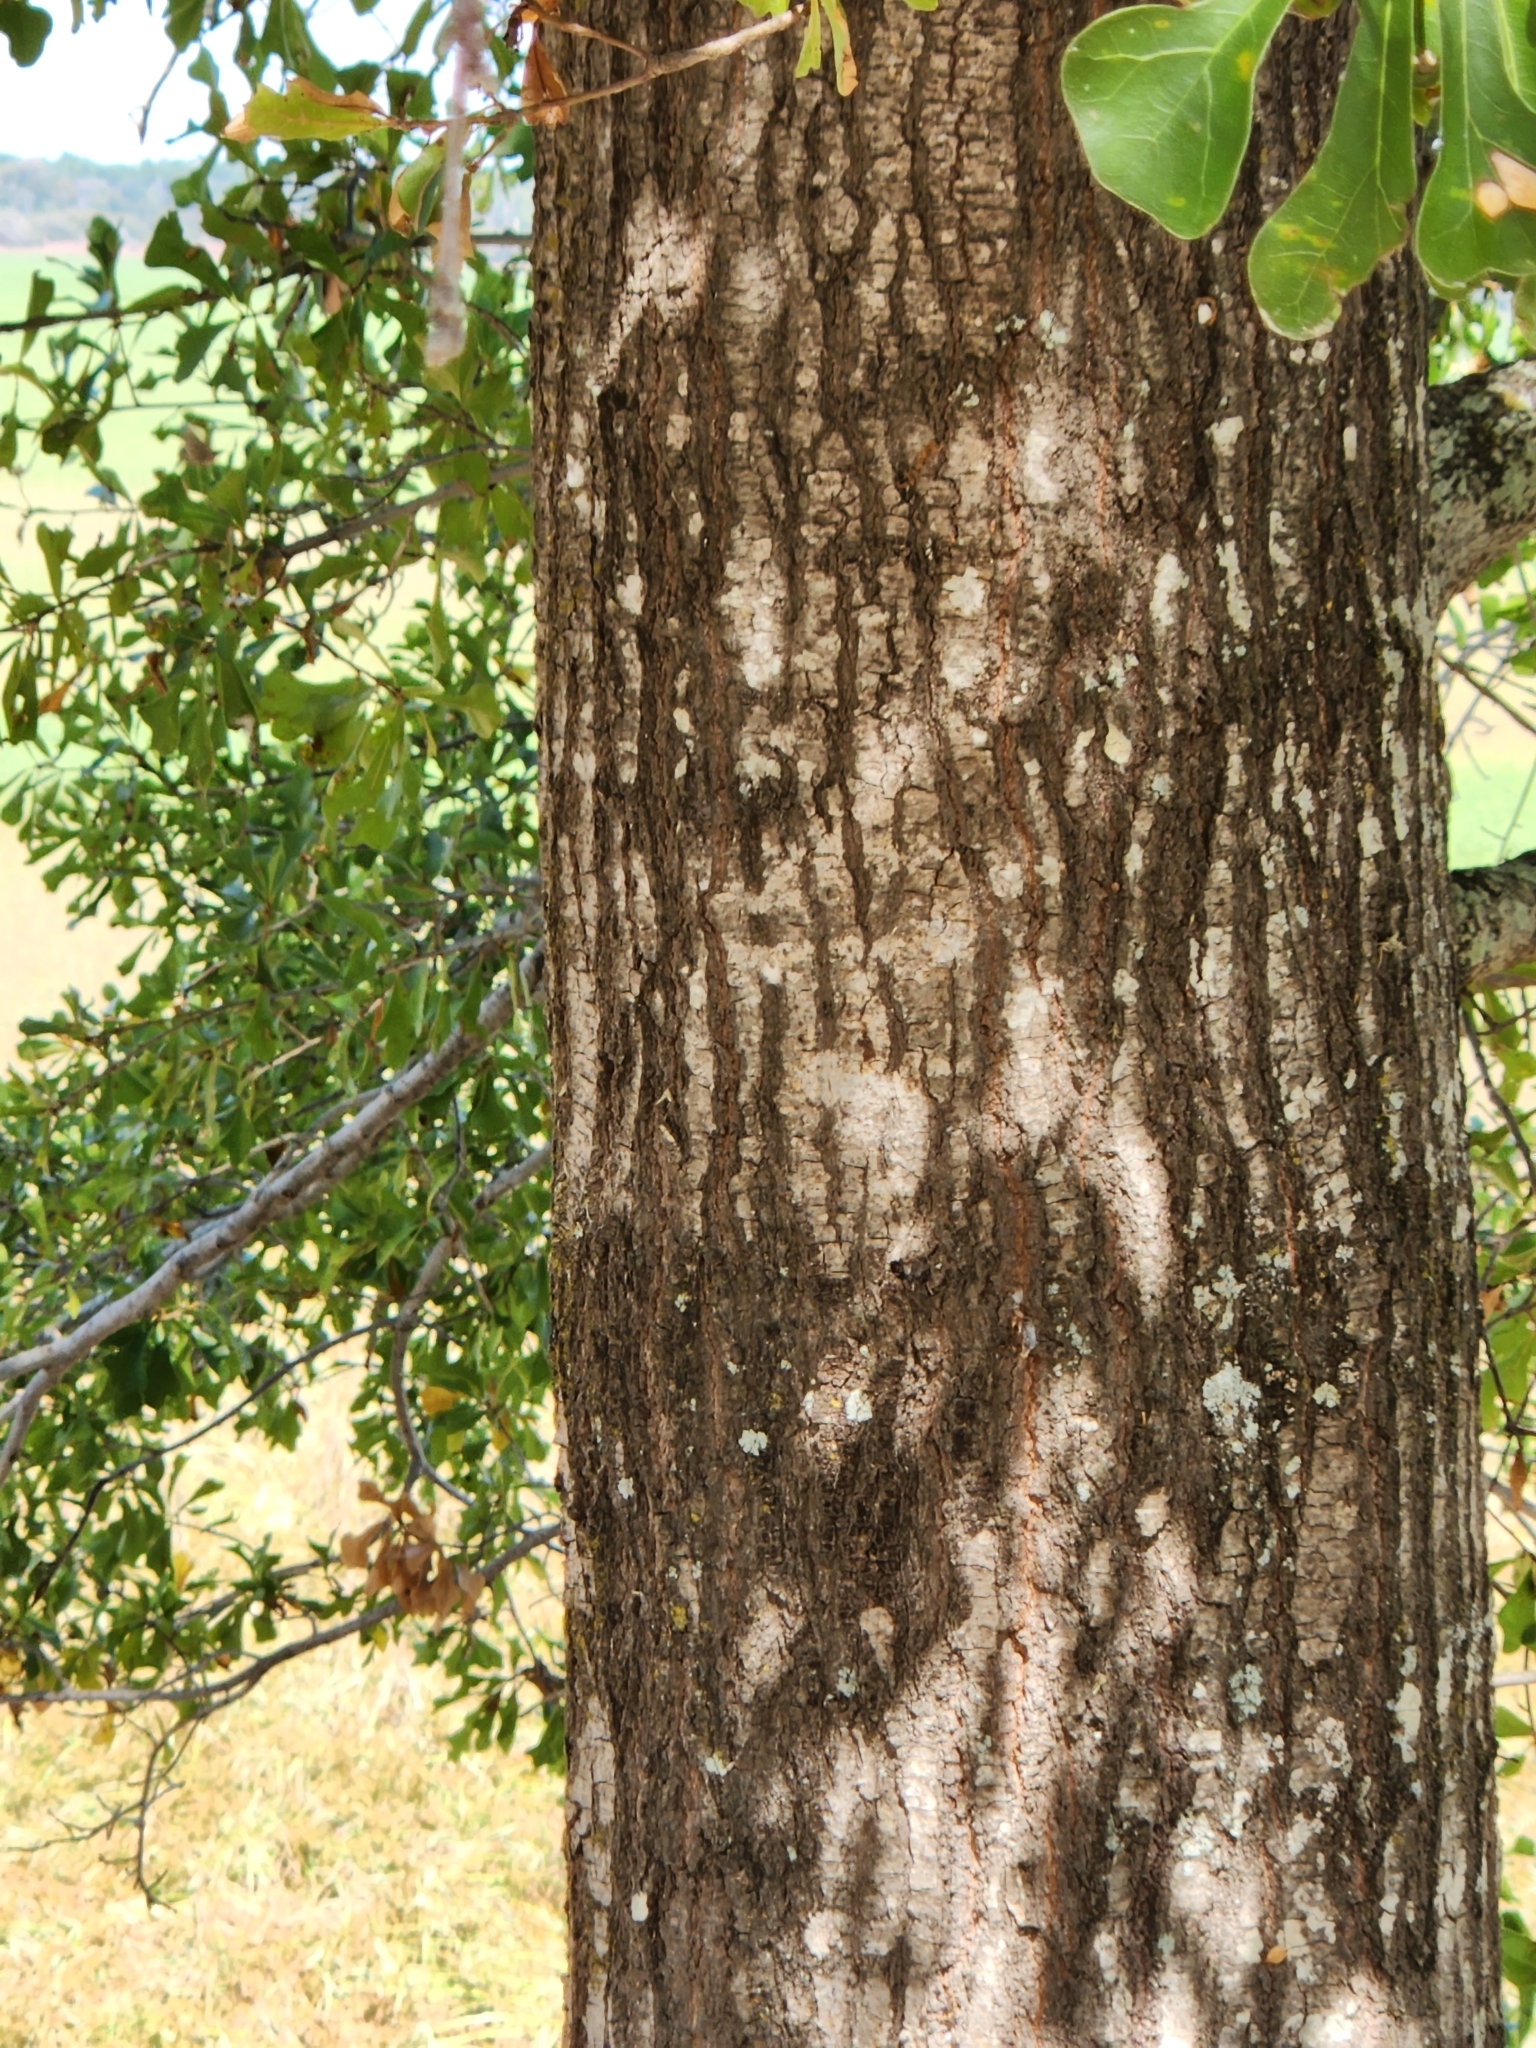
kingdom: Plantae
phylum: Tracheophyta
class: Magnoliopsida
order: Fagales
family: Fagaceae
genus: Quercus
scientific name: Quercus nigra
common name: Water oak
